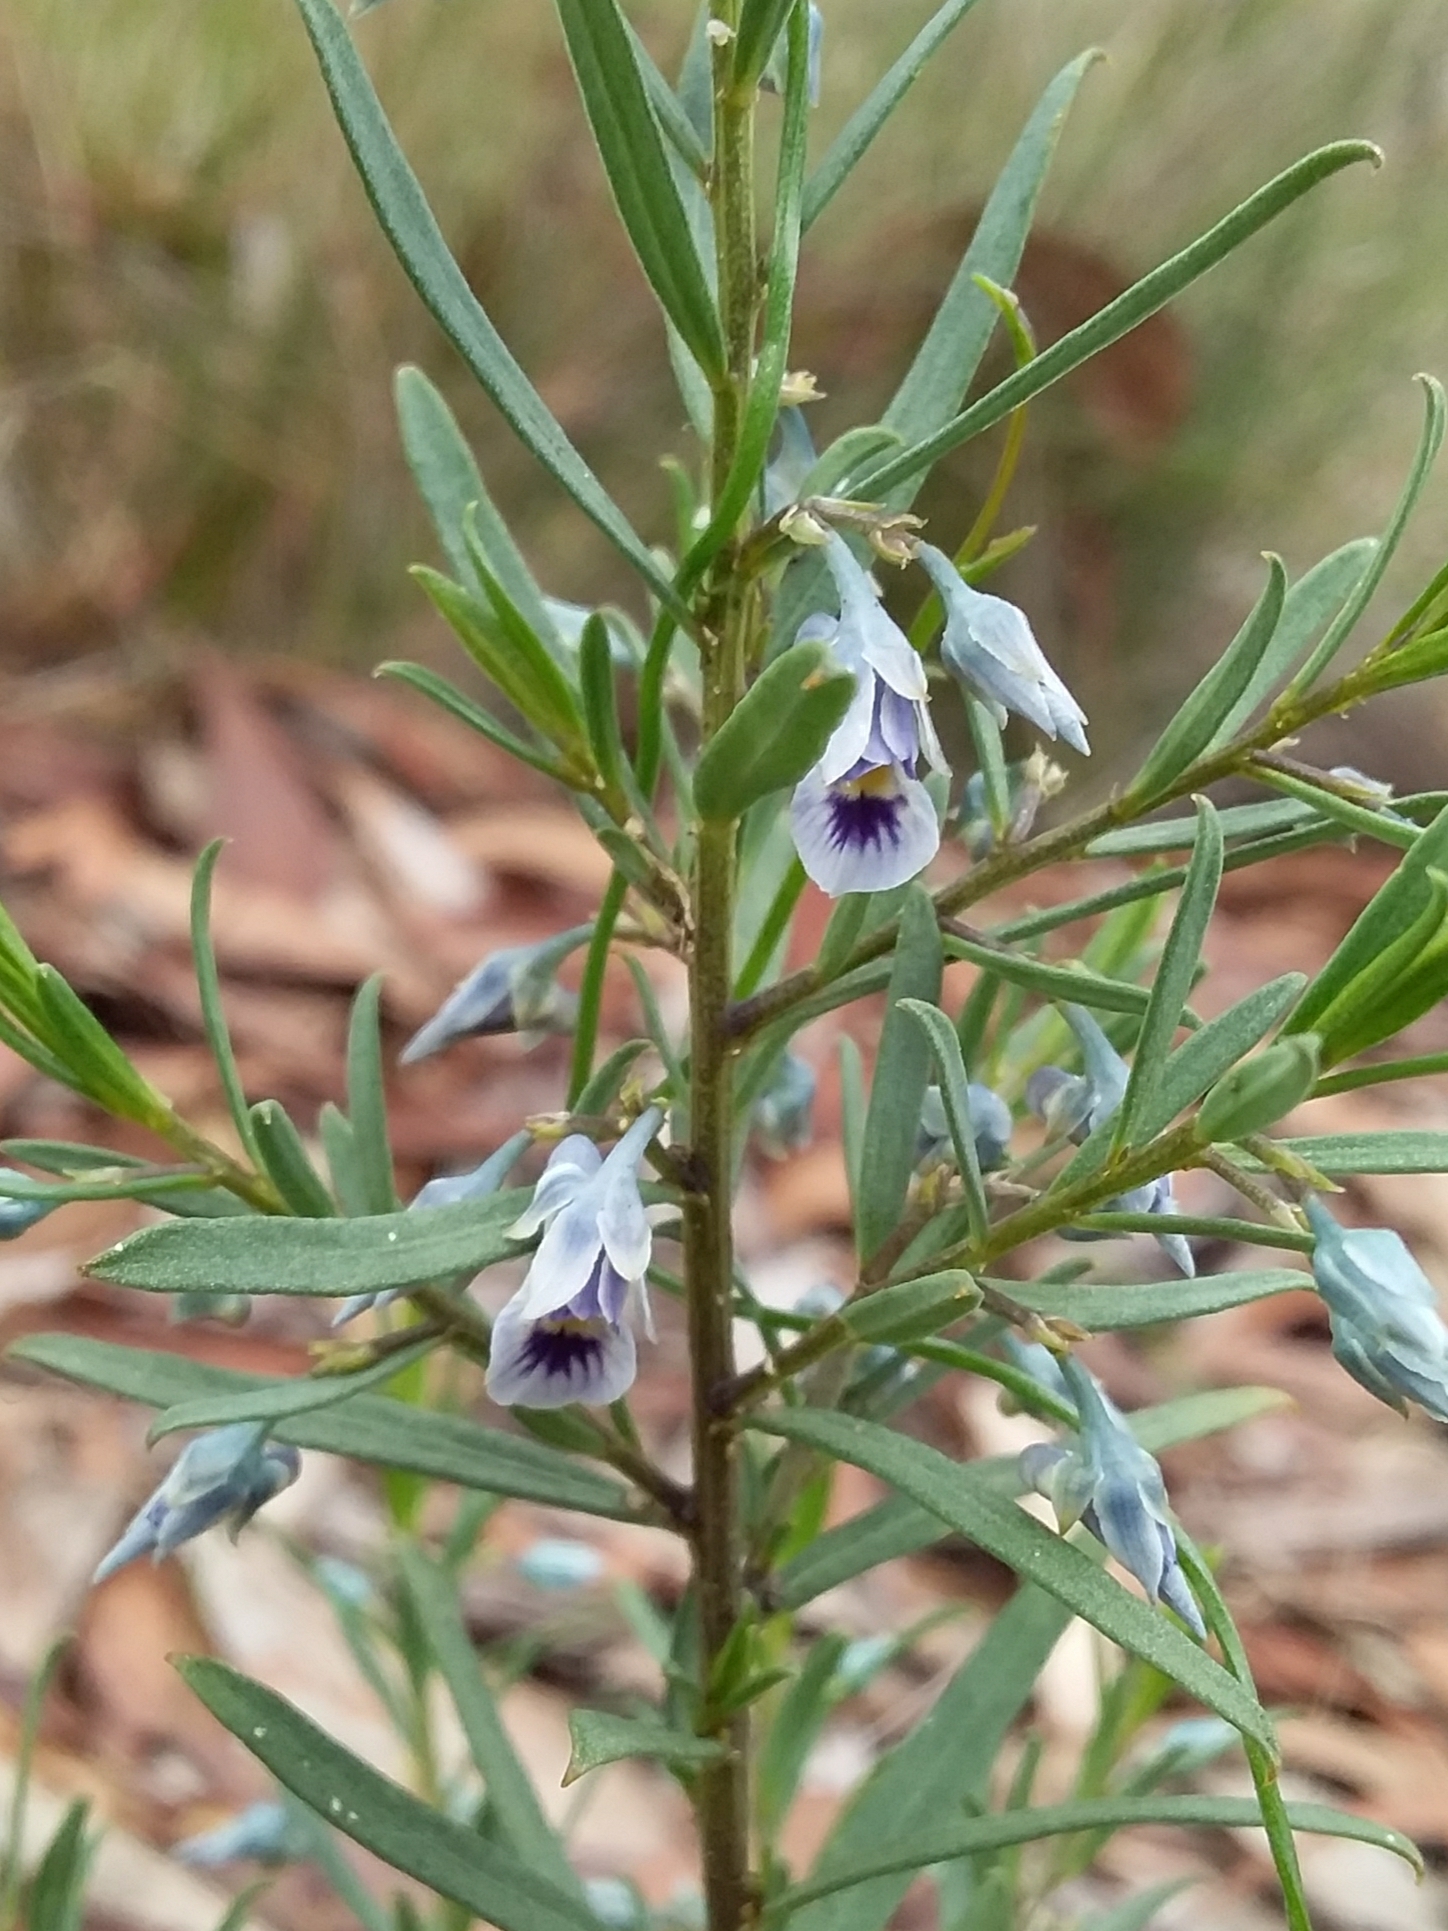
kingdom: Plantae
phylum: Tracheophyta
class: Magnoliopsida
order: Malpighiales
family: Violaceae
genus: Pigea
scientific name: Pigea floribunda
